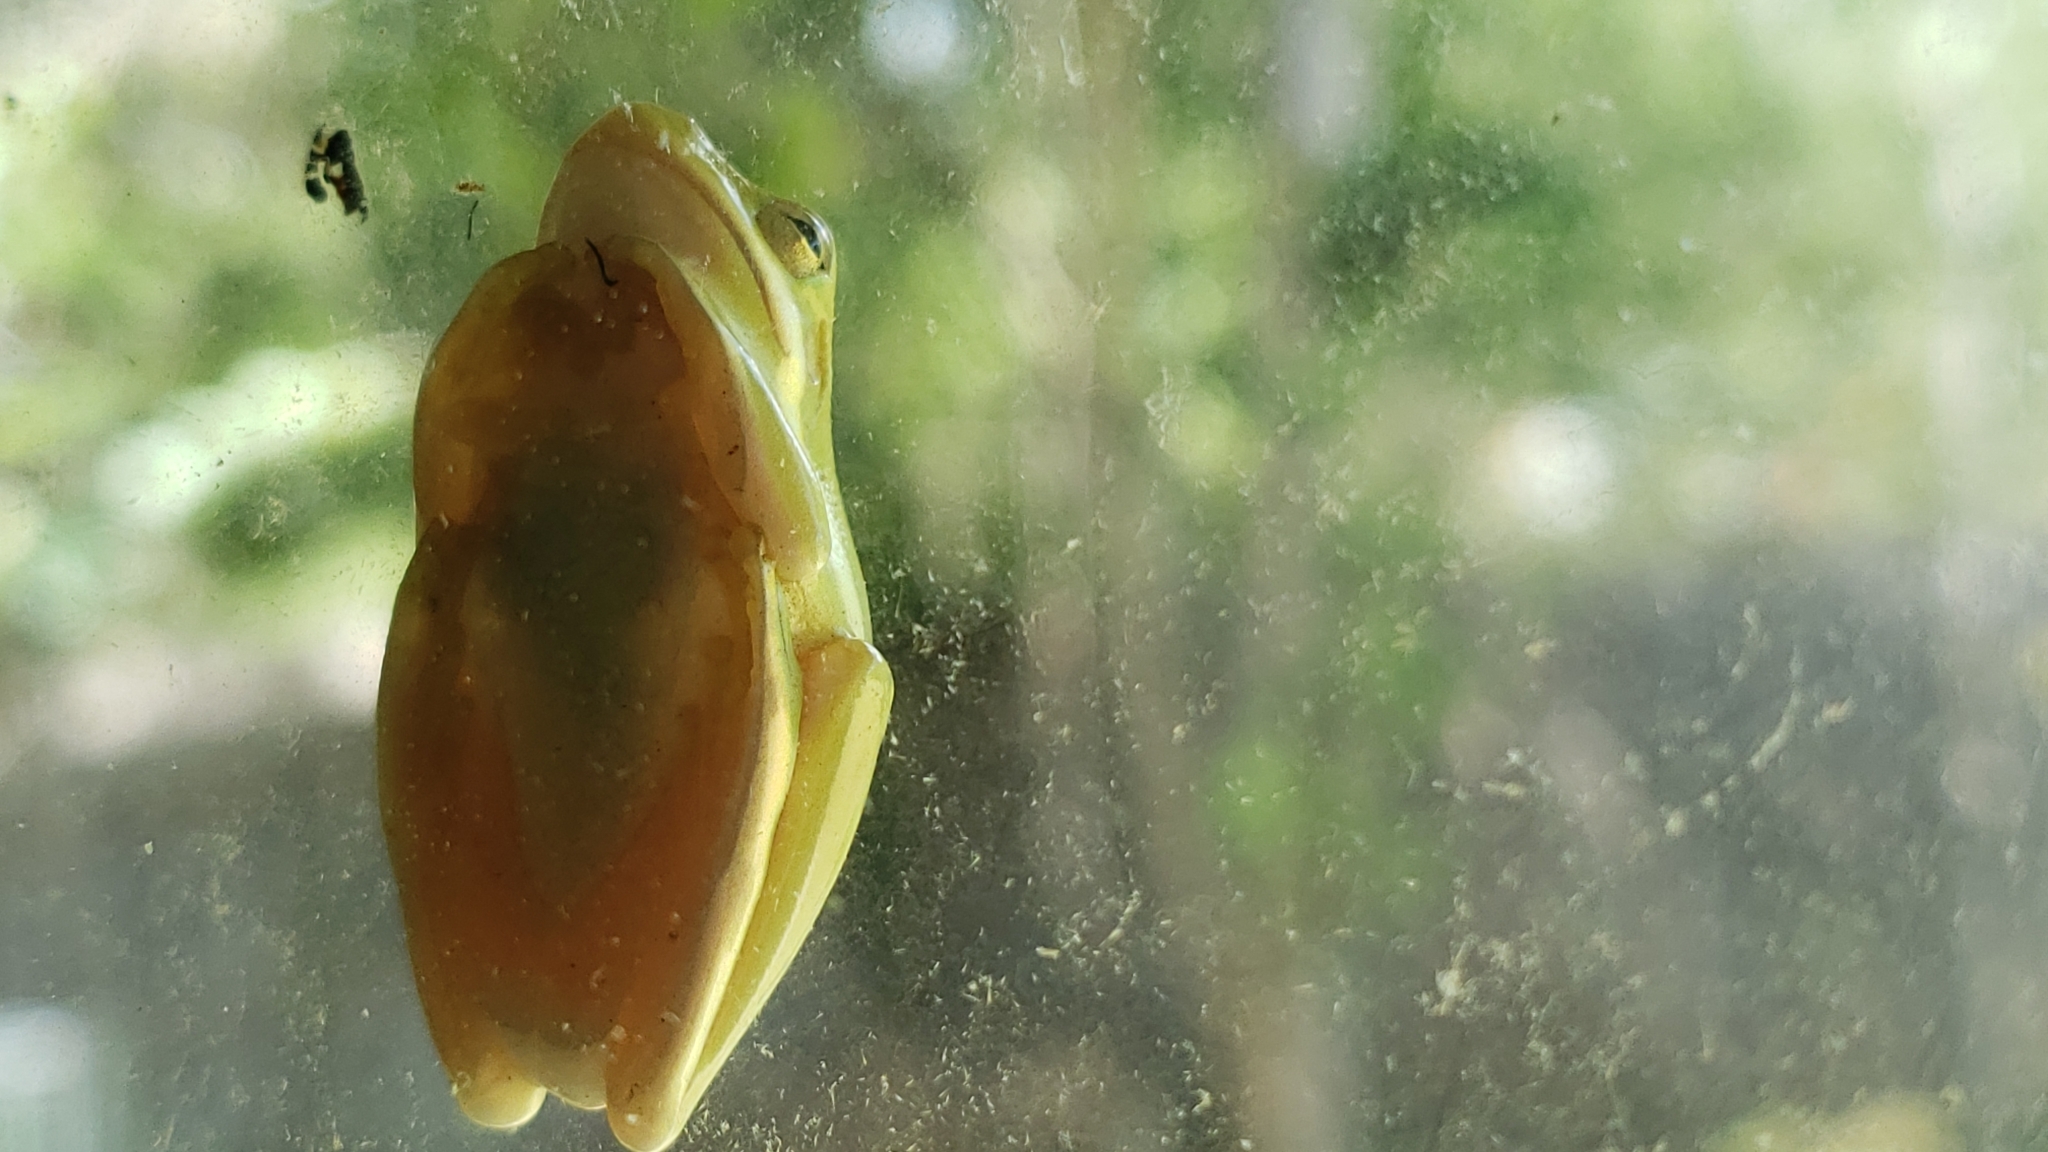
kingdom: Animalia
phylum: Chordata
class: Amphibia
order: Anura
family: Hylidae
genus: Dryophytes
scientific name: Dryophytes cinereus
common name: Green treefrog
